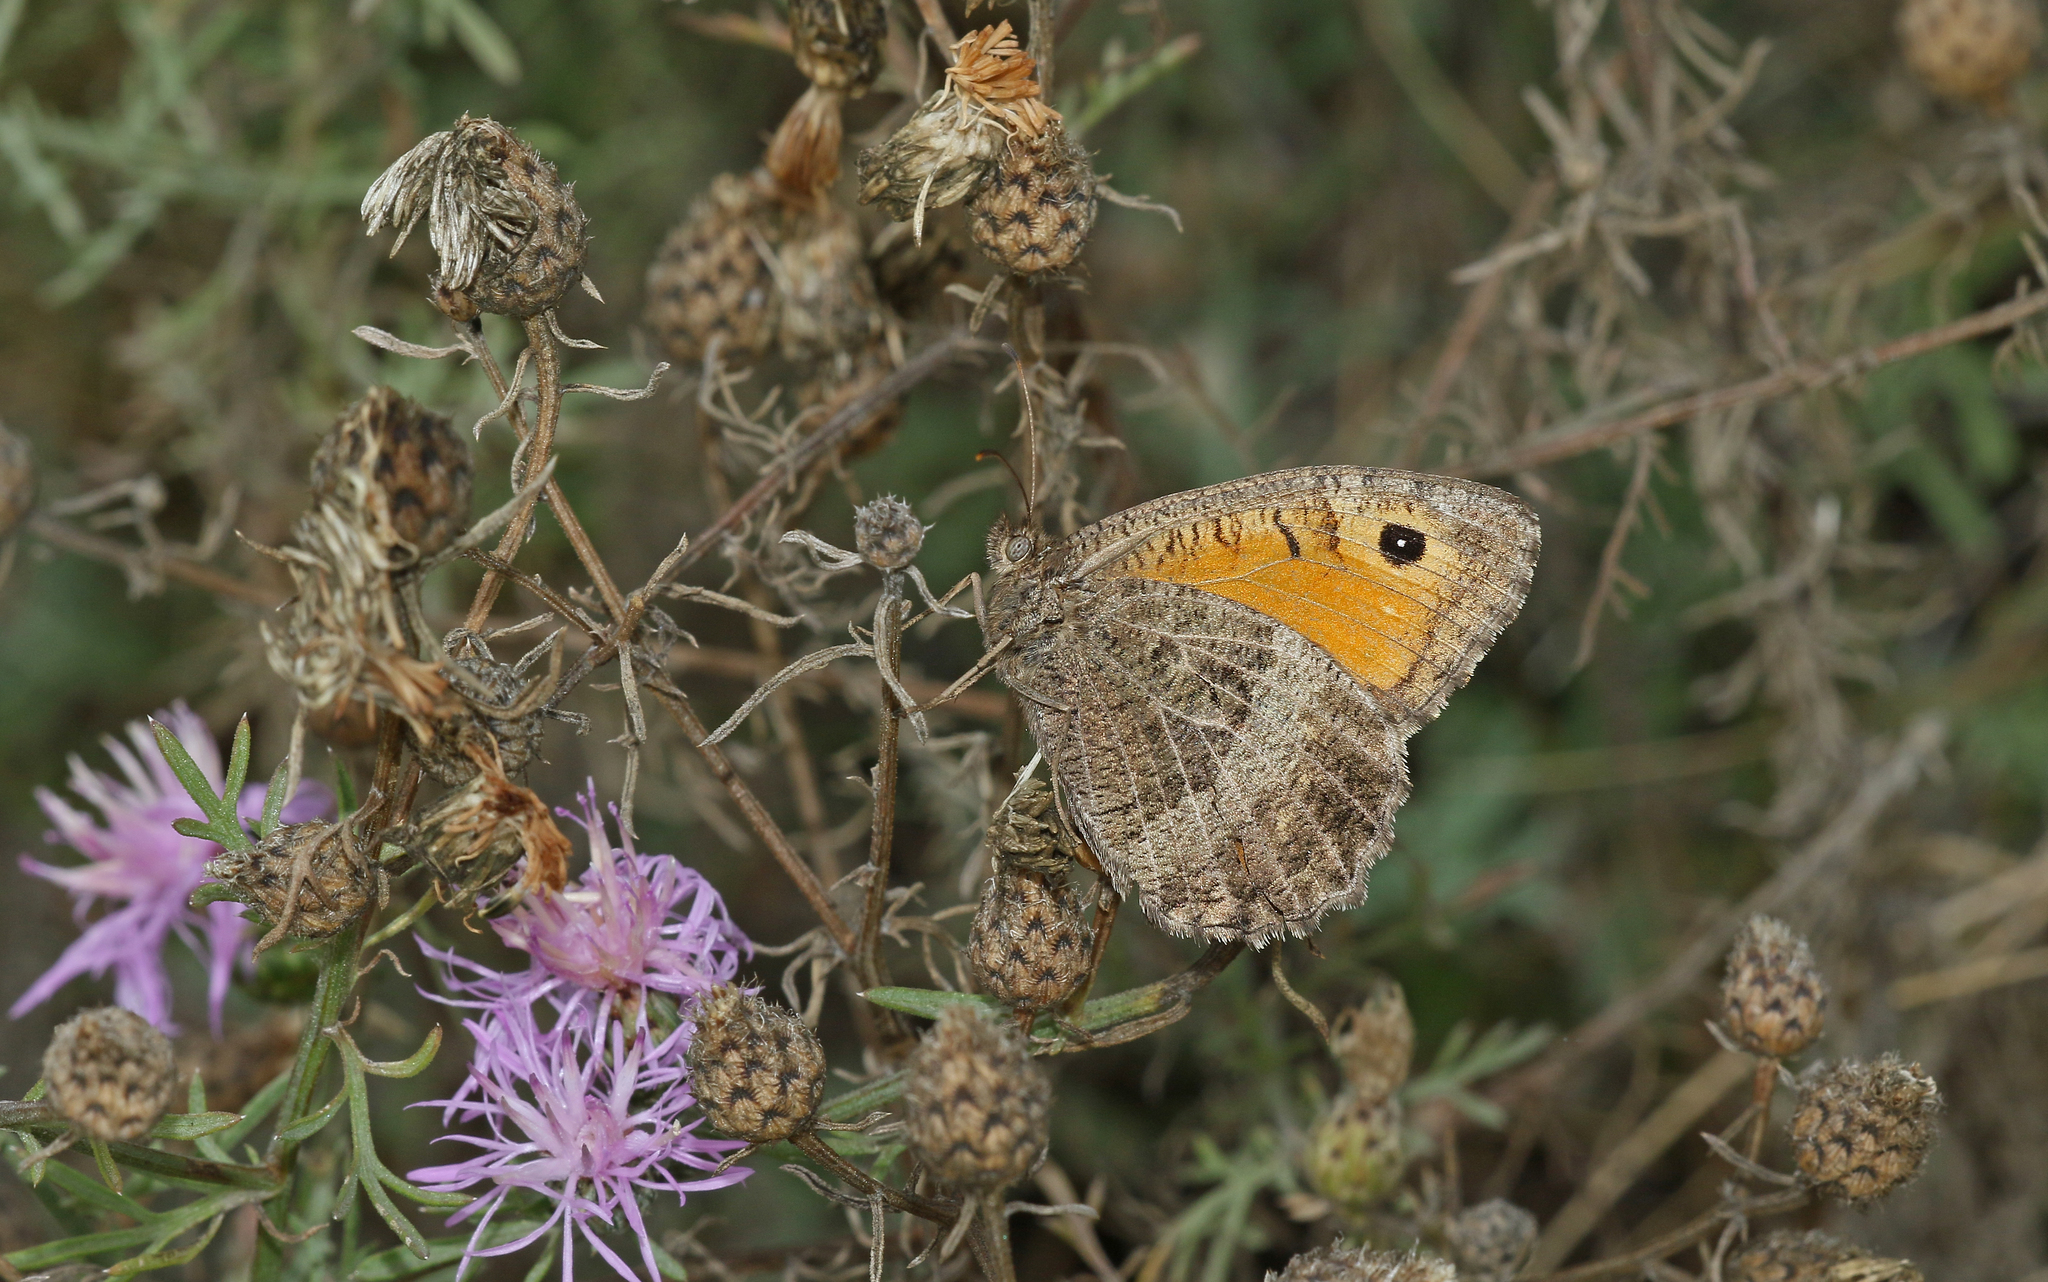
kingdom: Animalia
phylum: Arthropoda
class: Insecta
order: Lepidoptera
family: Nymphalidae
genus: Arethusana
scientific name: Arethusana arethusa
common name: False grayling
